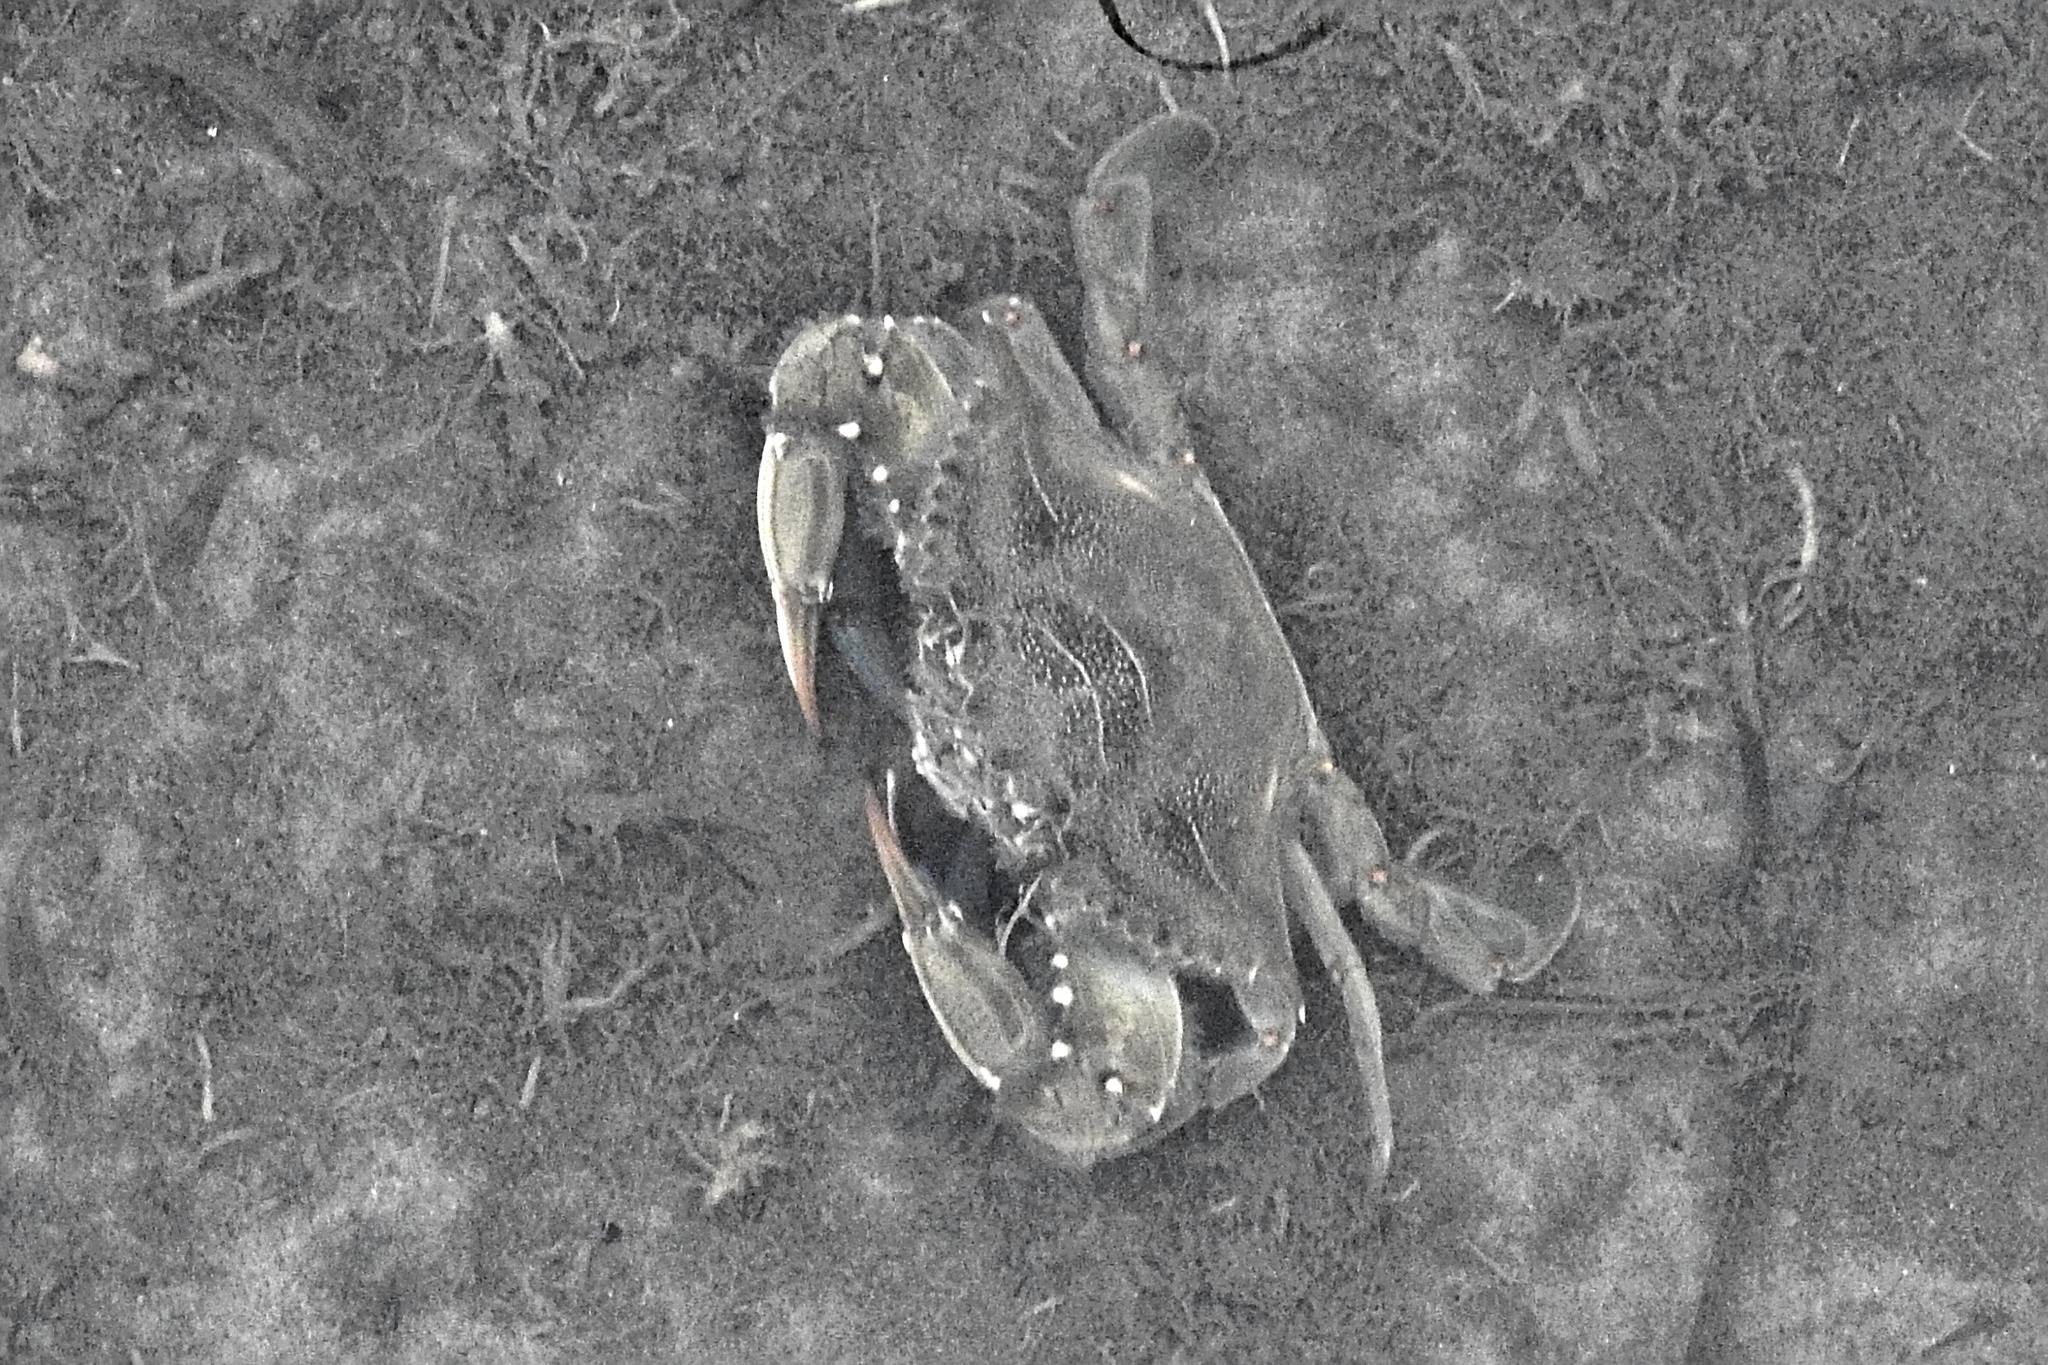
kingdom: Animalia
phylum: Arthropoda
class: Malacostraca
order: Decapoda
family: Portunidae
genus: Callinectes
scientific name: Callinectes sapidus
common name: Blue crab
